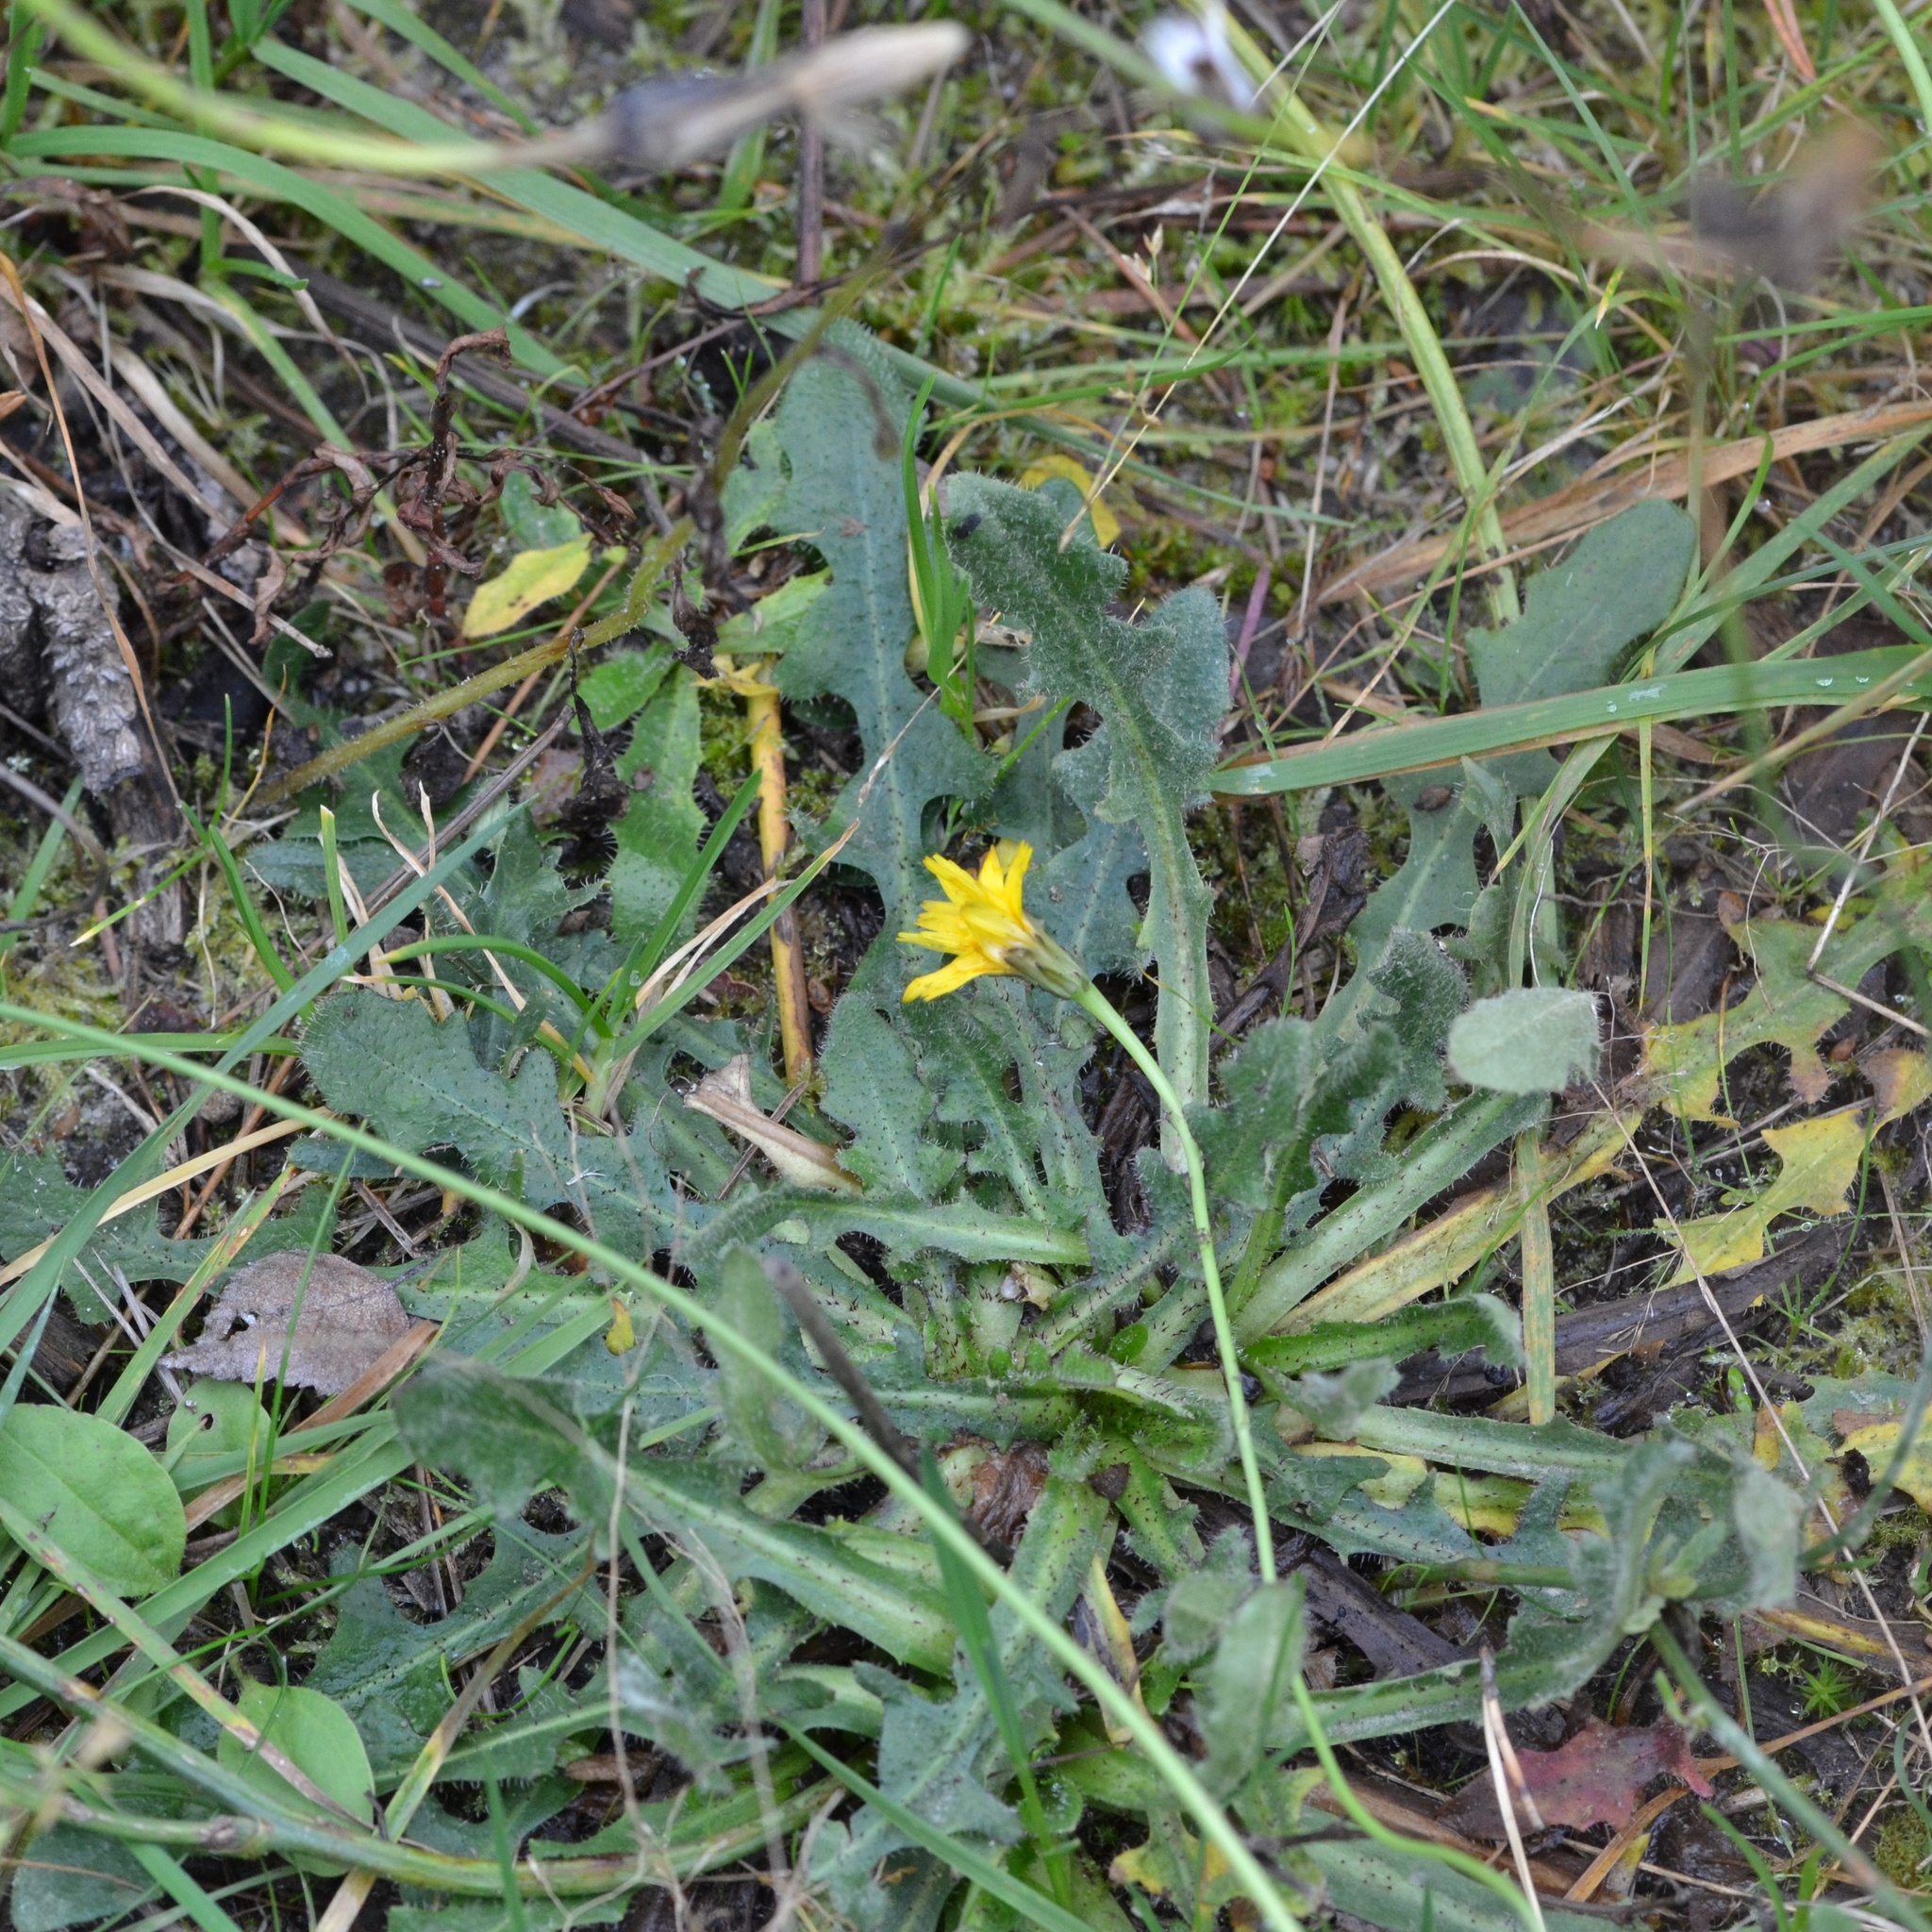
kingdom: Plantae
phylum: Tracheophyta
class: Magnoliopsida
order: Asterales
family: Asteraceae
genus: Hypochaeris
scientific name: Hypochaeris radicata
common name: Flatweed
